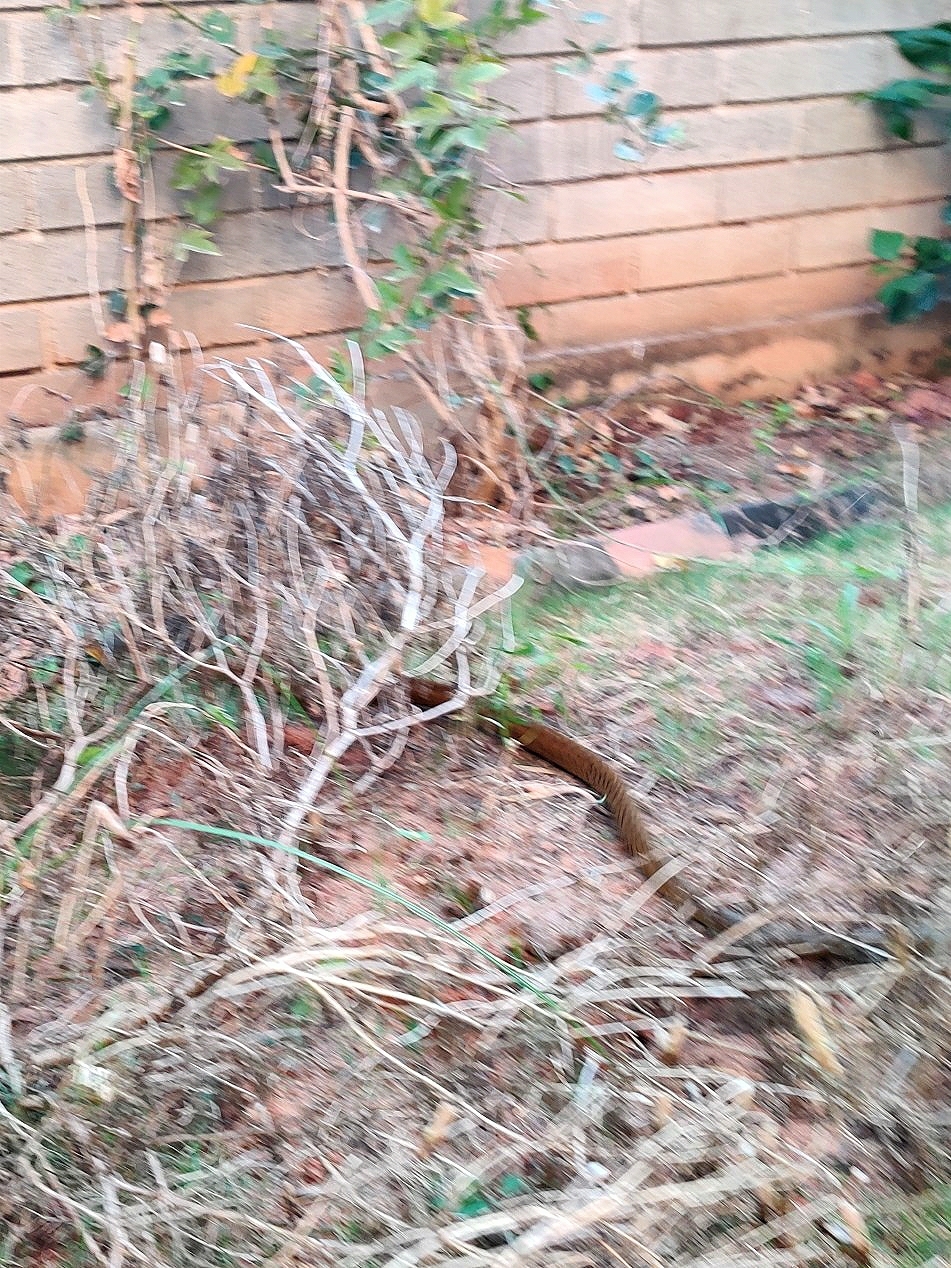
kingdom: Animalia
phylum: Chordata
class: Squamata
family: Colubridae
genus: Ptyas
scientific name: Ptyas mucosa
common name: Oriental ratsnake
